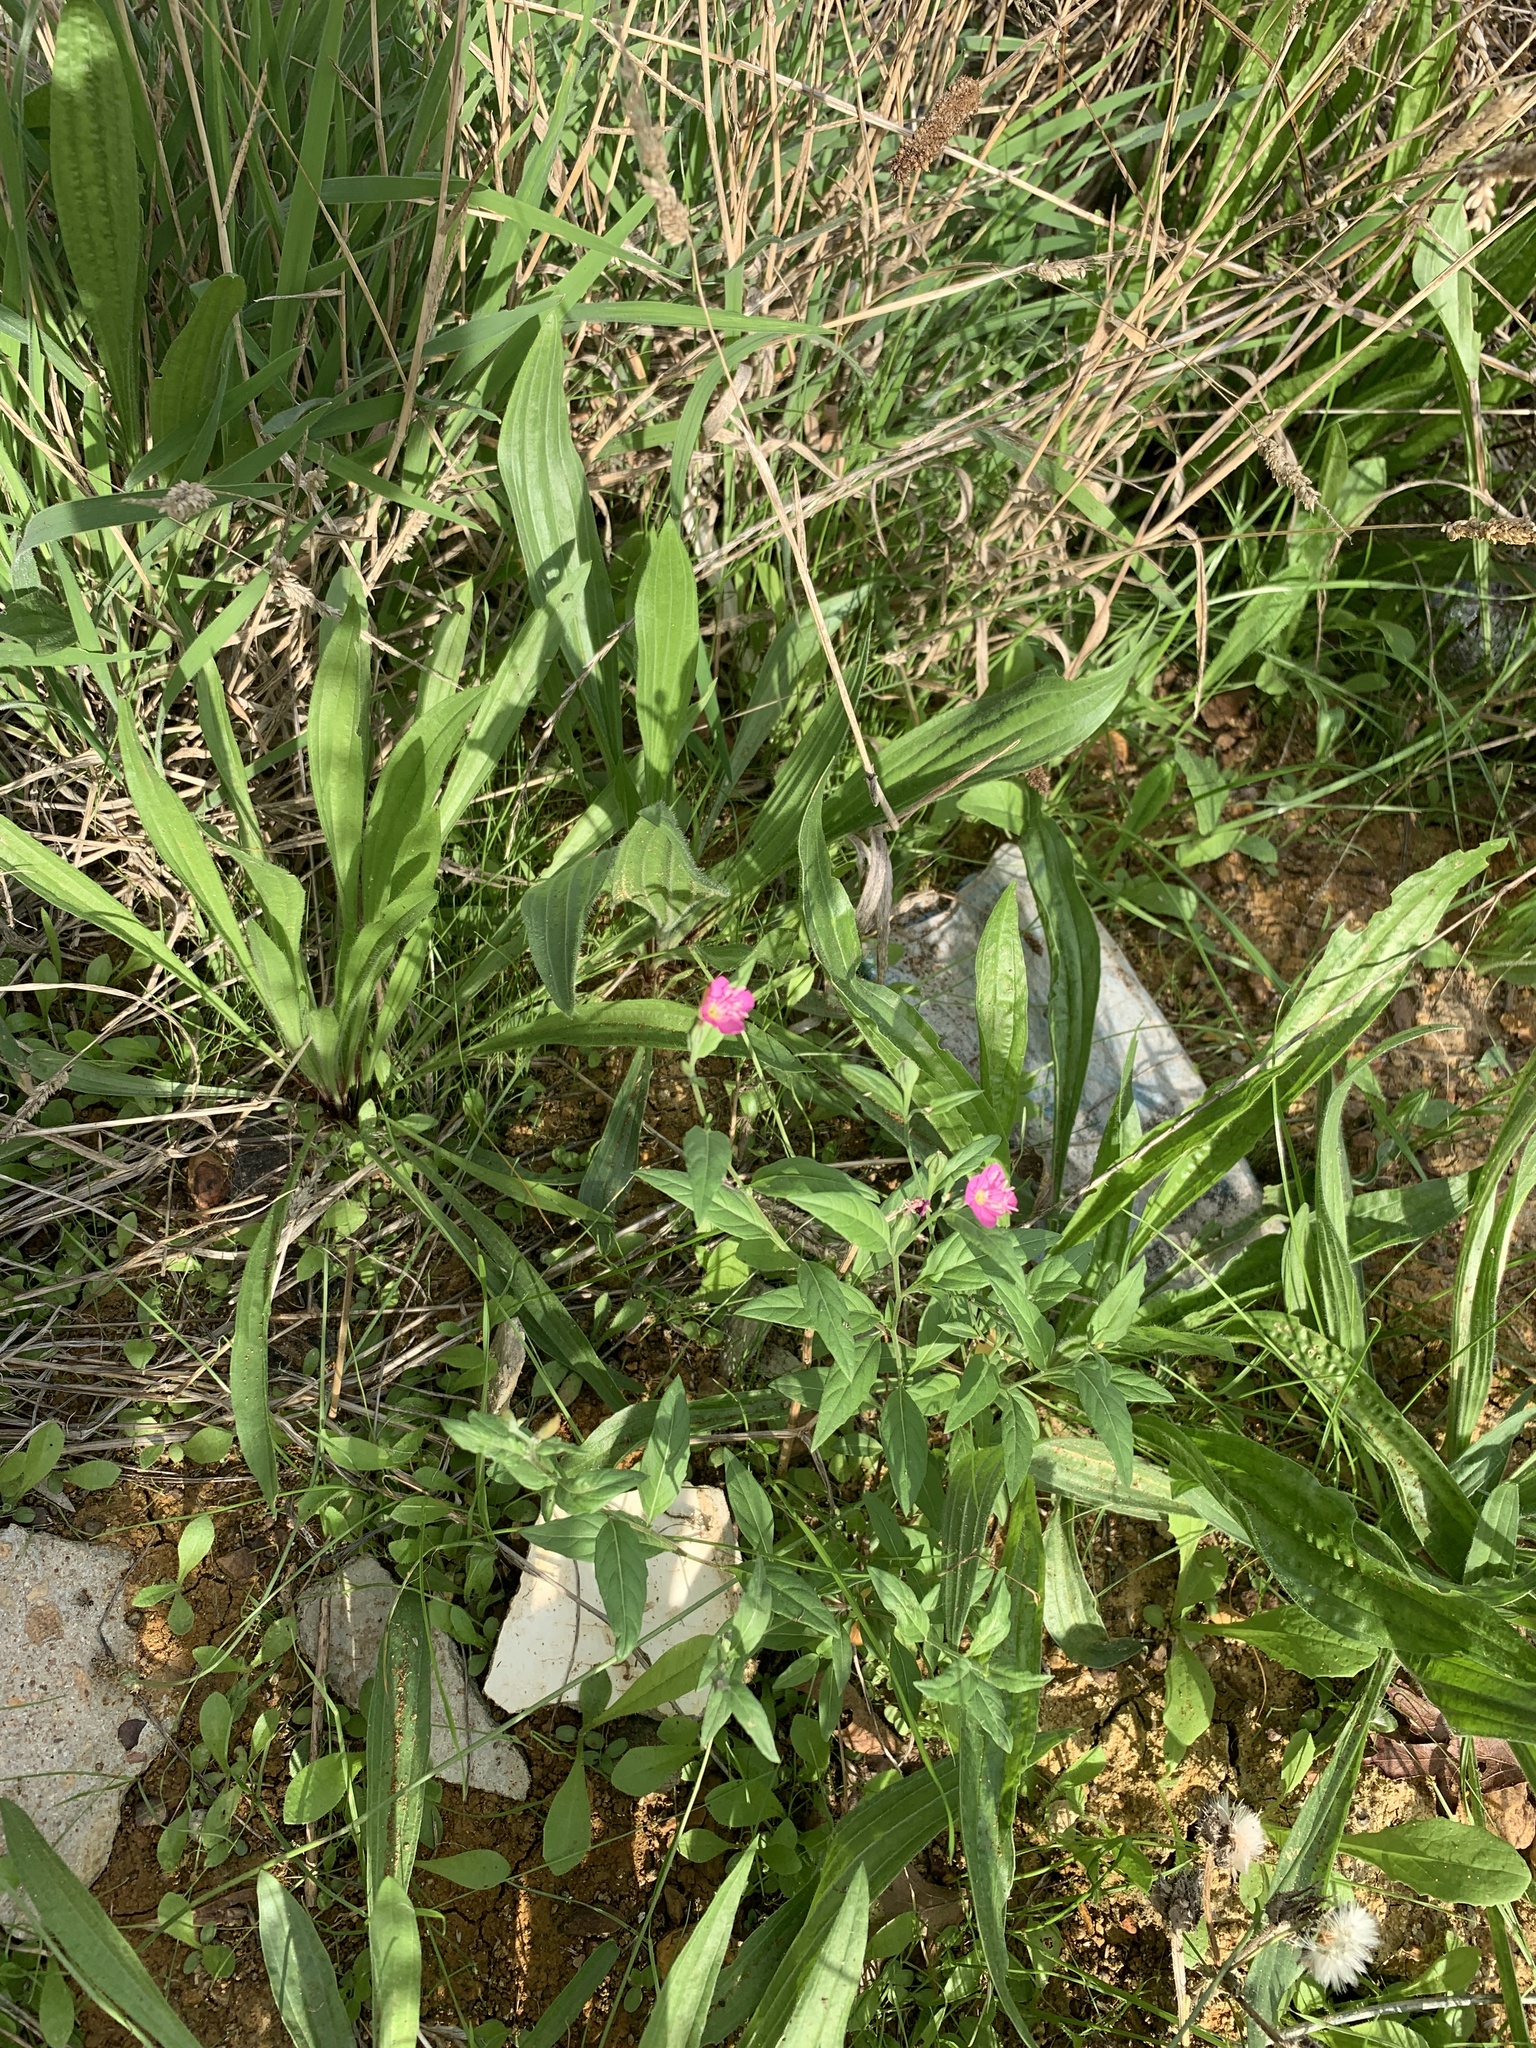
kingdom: Plantae
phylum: Tracheophyta
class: Magnoliopsida
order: Myrtales
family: Onagraceae
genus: Oenothera
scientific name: Oenothera rosea
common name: Rosy evening-primrose
